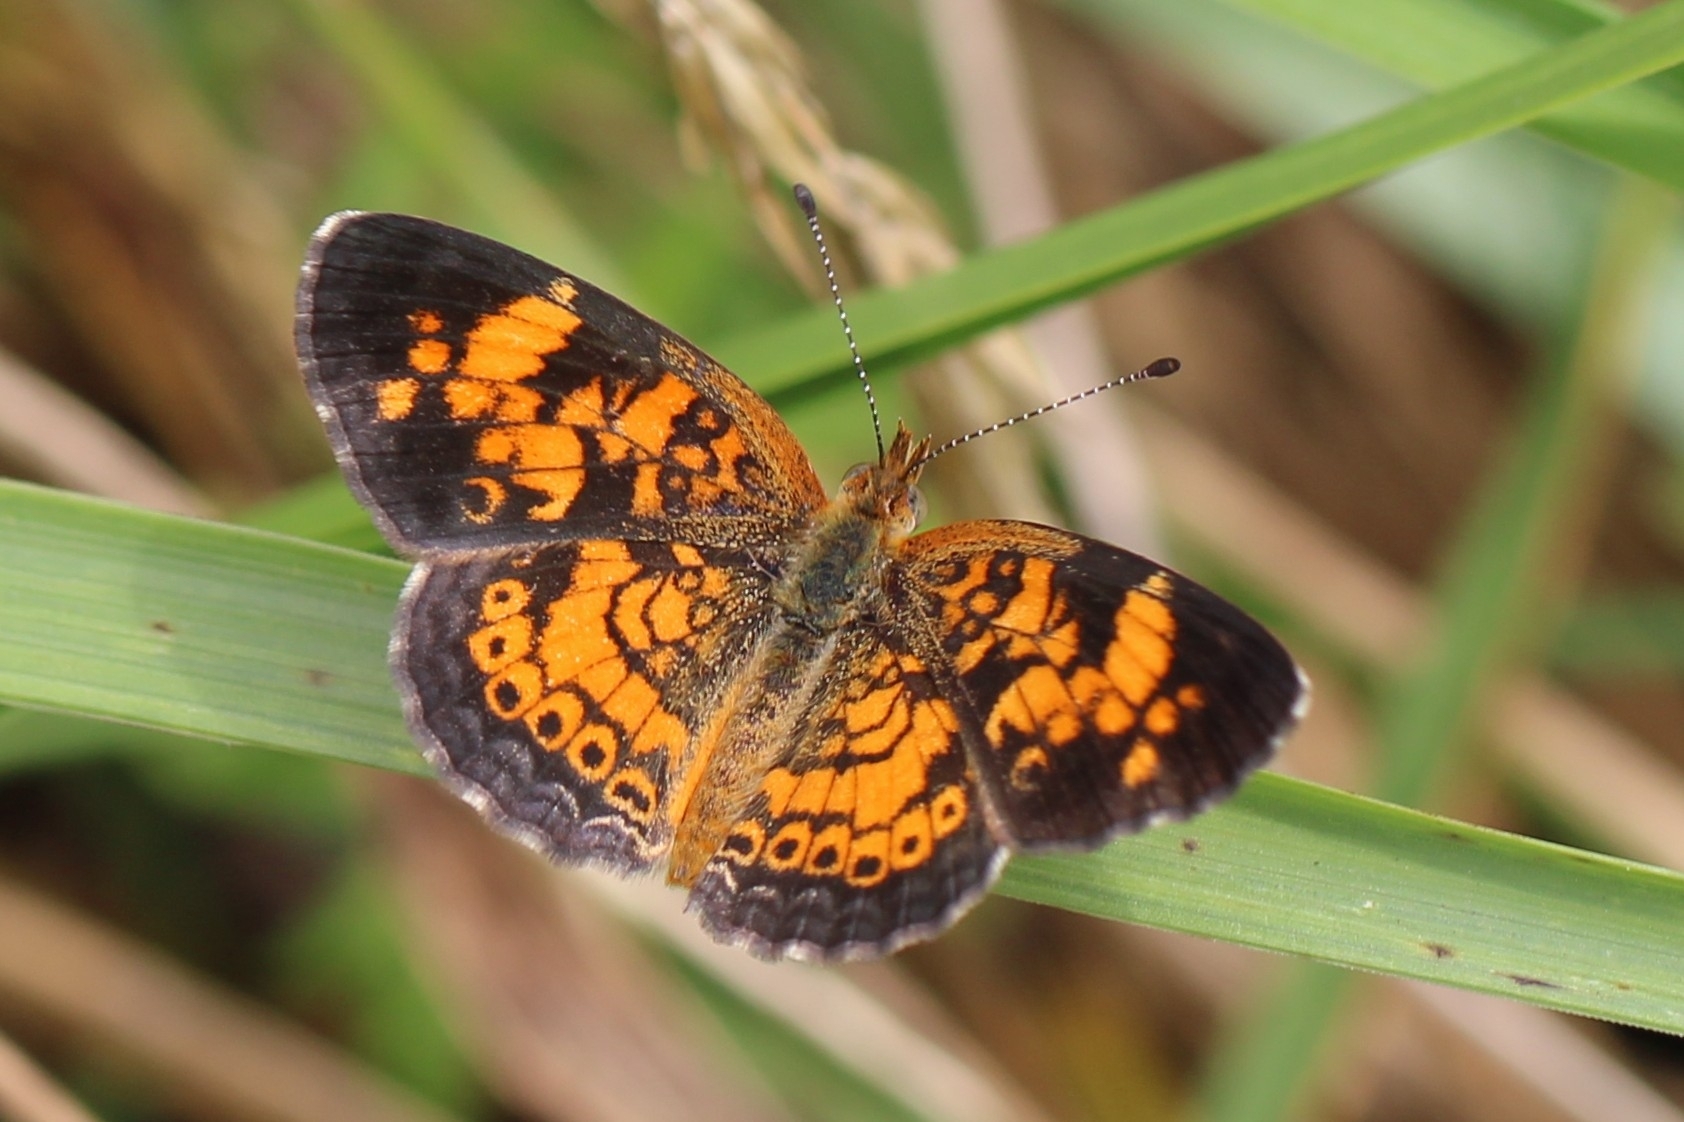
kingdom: Animalia
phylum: Arthropoda
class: Insecta
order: Lepidoptera
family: Nymphalidae
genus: Phyciodes
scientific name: Phyciodes tharos
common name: Pearl crescent
